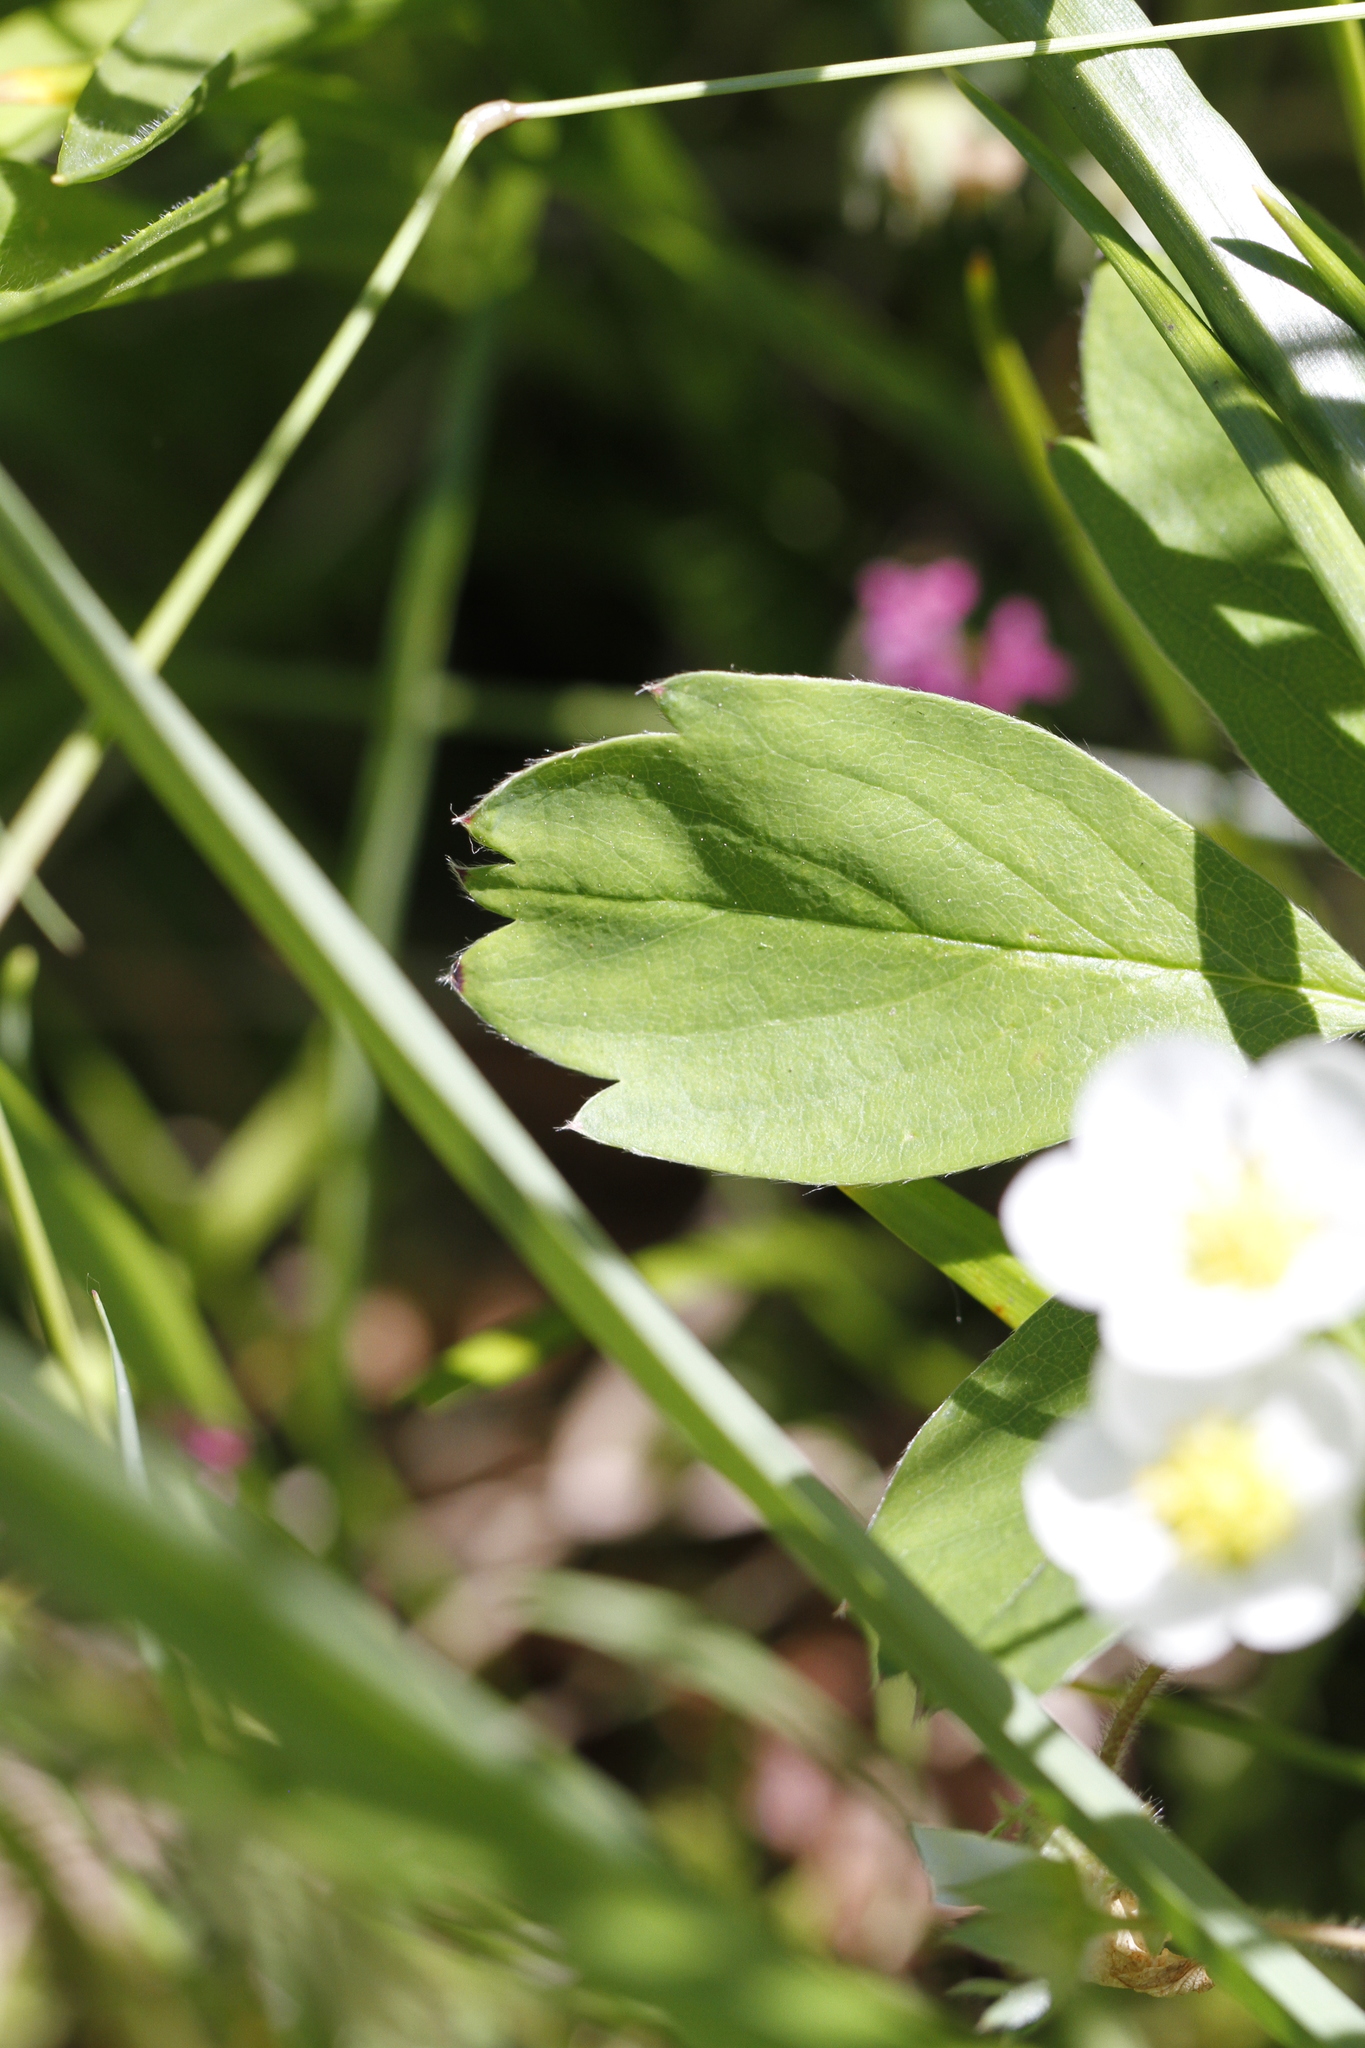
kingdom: Plantae
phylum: Tracheophyta
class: Magnoliopsida
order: Rosales
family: Rosaceae
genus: Fragaria
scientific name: Fragaria virginiana
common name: Thickleaved wild strawberry
